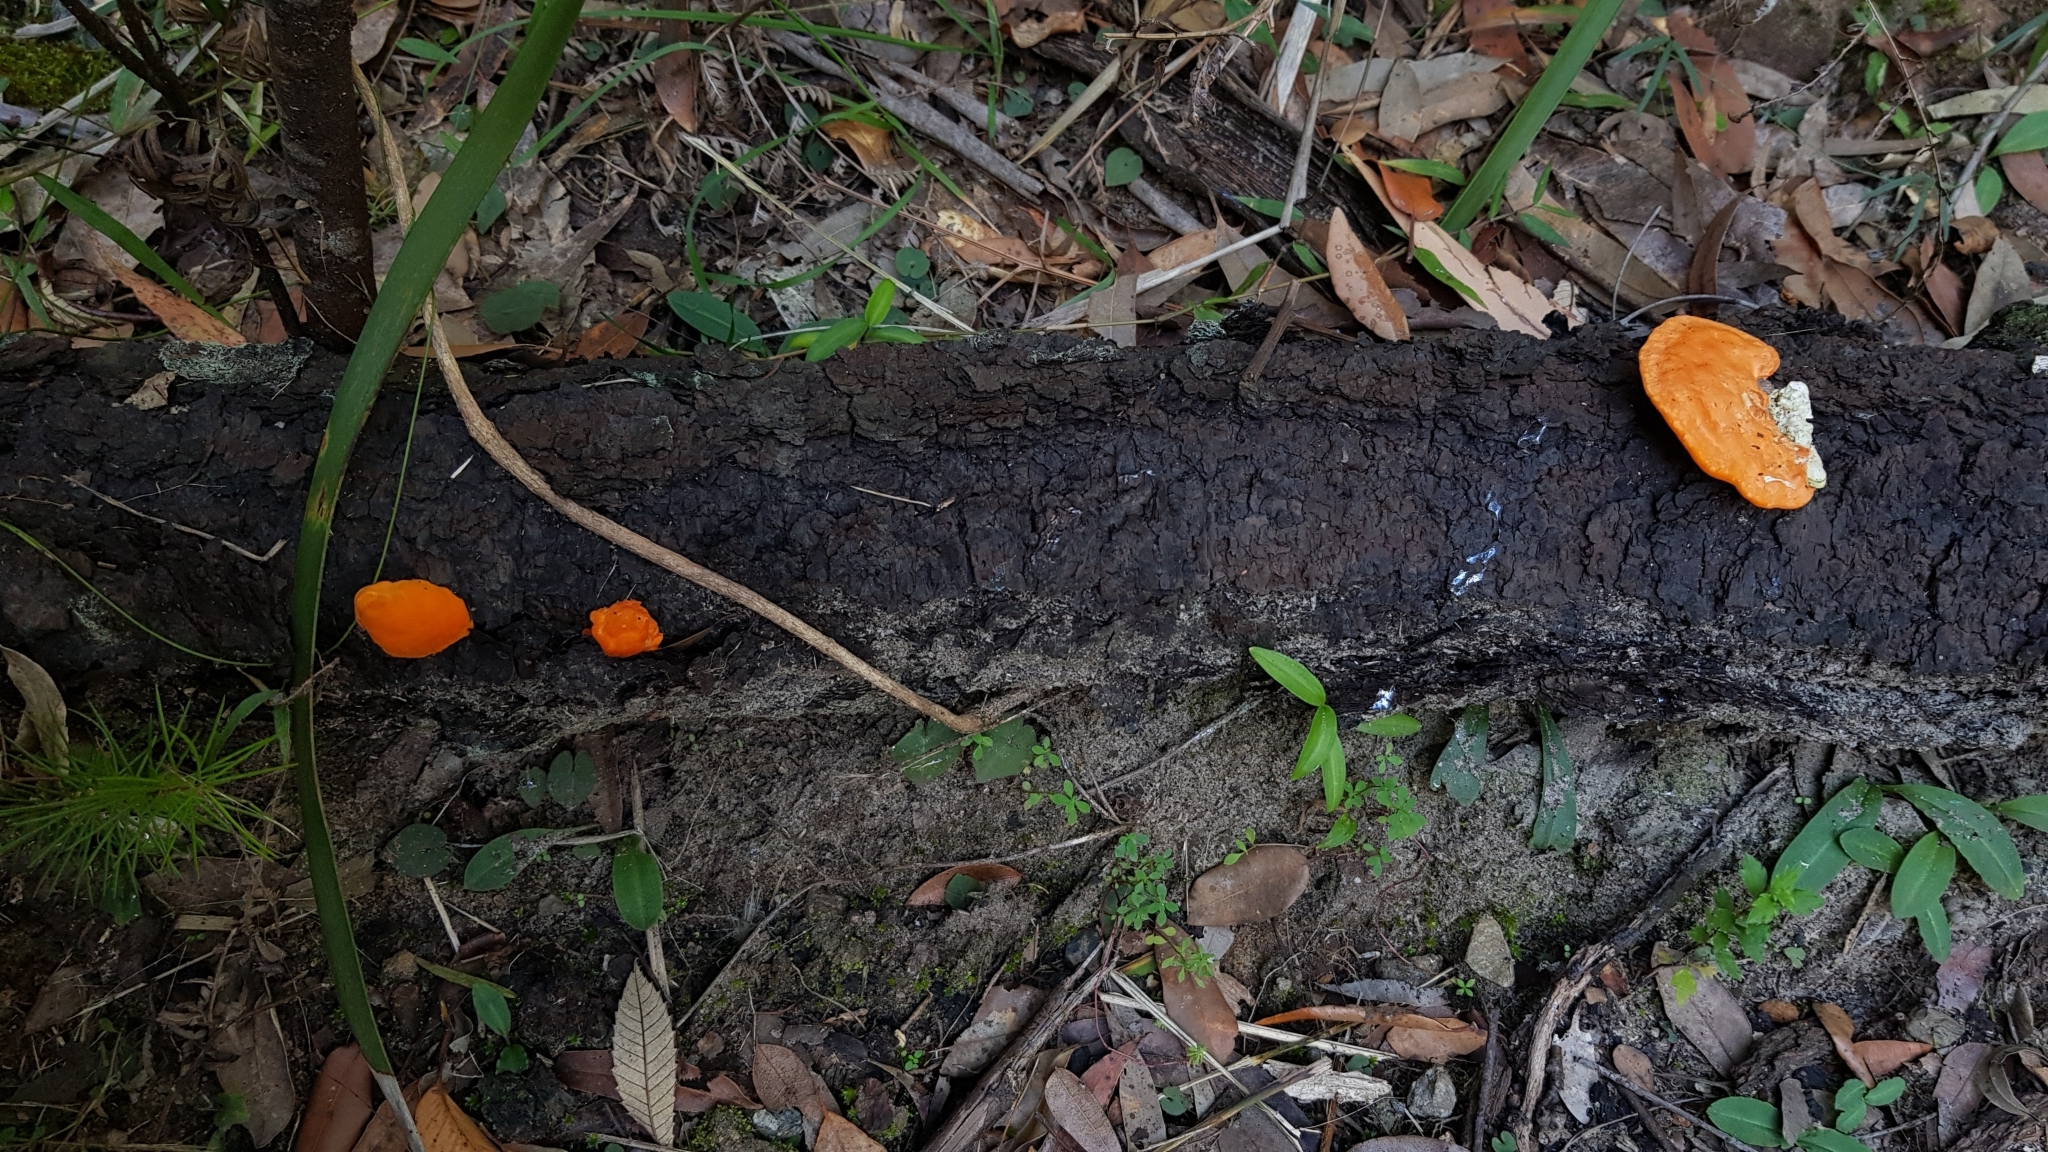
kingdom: Fungi
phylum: Basidiomycota
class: Agaricomycetes
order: Polyporales
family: Polyporaceae
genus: Trametes
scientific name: Trametes coccinea
